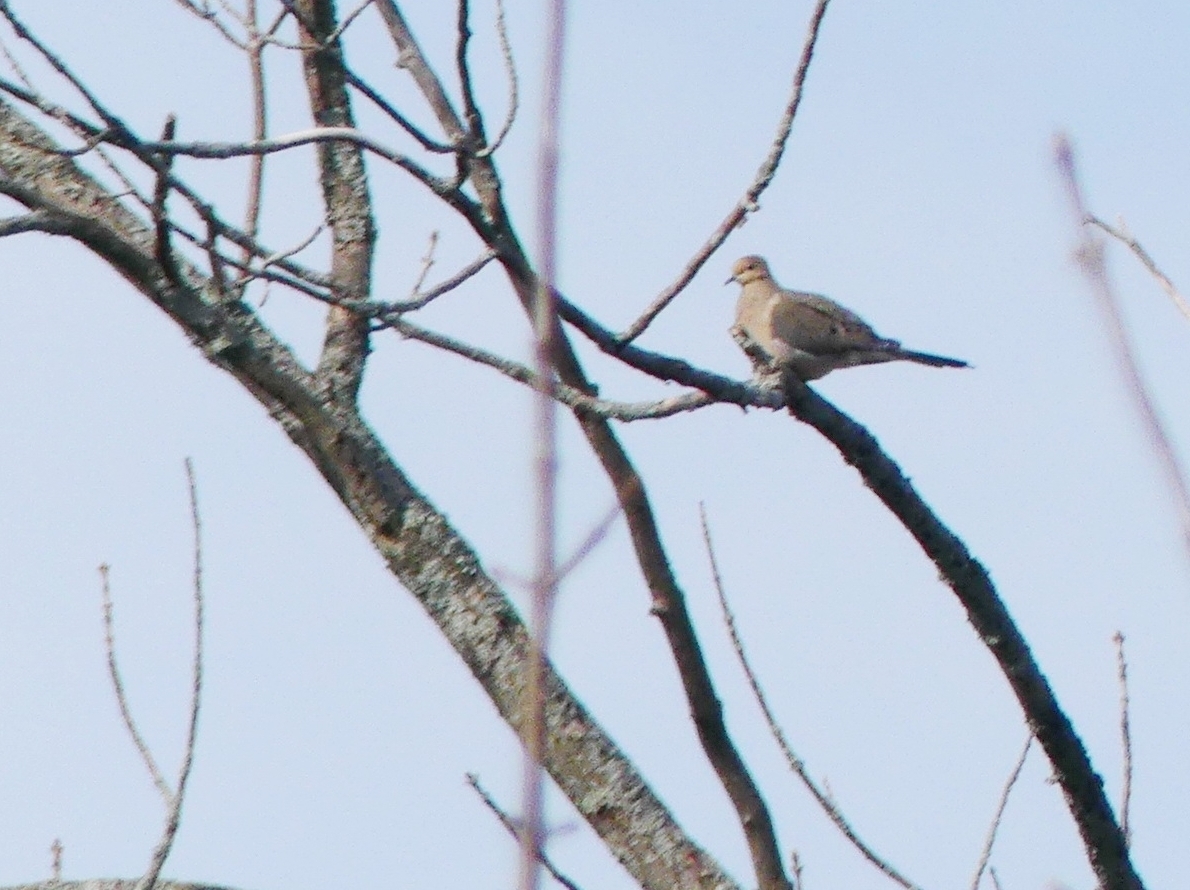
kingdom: Animalia
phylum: Chordata
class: Aves
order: Columbiformes
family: Columbidae
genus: Zenaida
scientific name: Zenaida macroura
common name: Mourning dove
